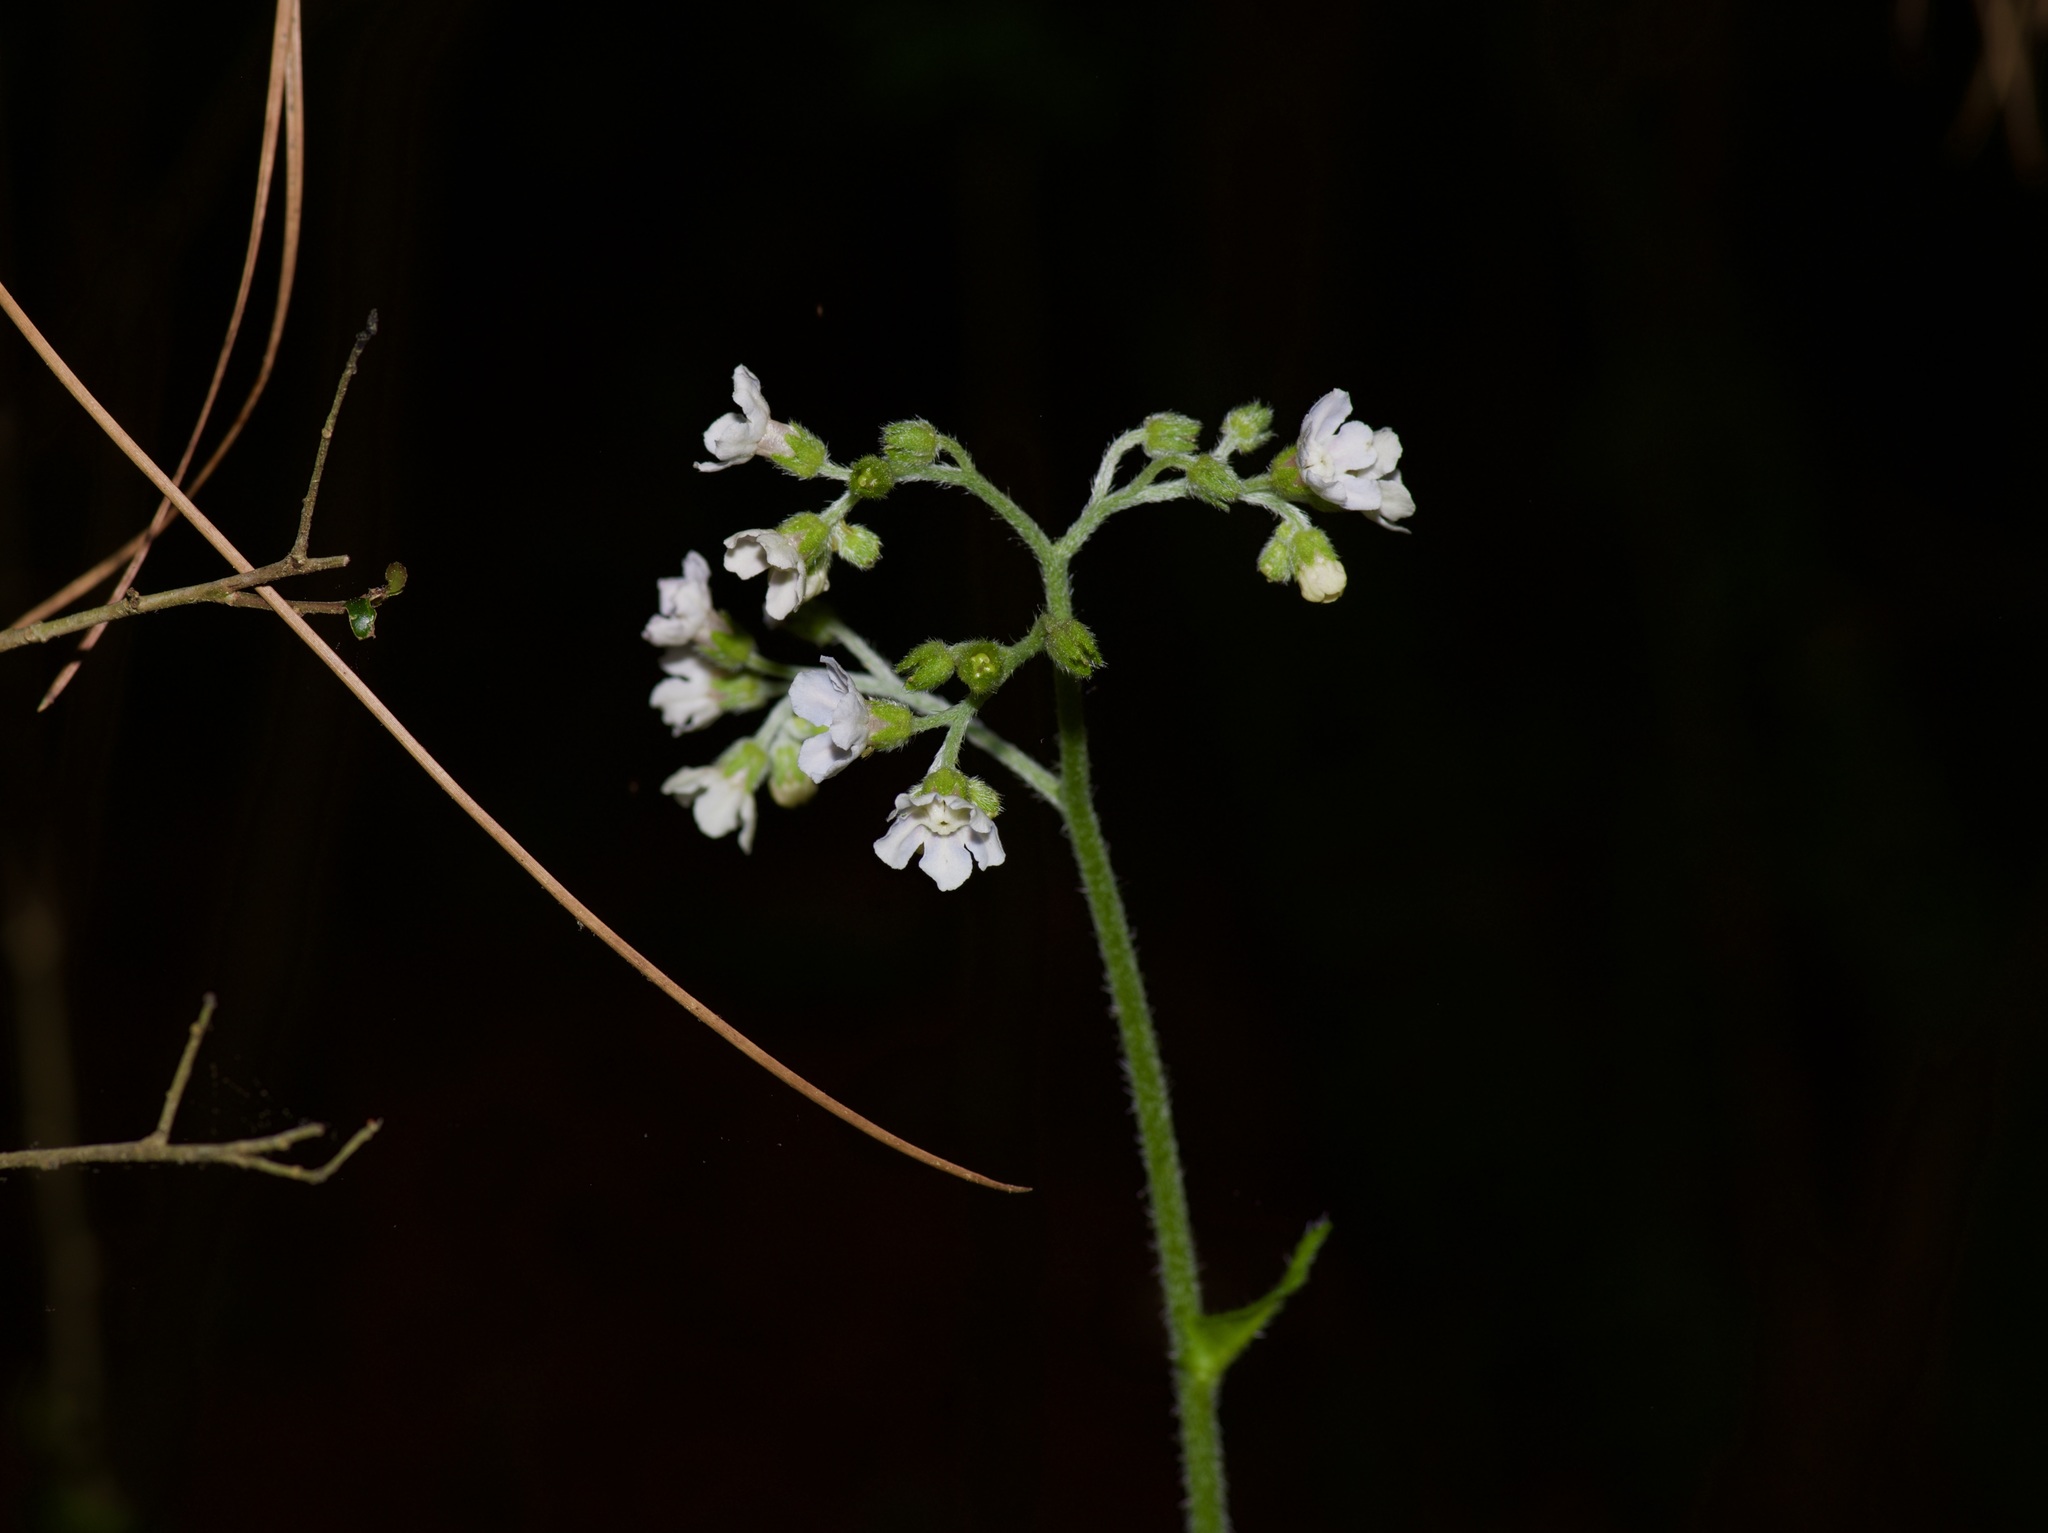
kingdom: Plantae
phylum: Tracheophyta
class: Magnoliopsida
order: Boraginales
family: Boraginaceae
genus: Andersonglossum
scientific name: Andersonglossum virginianum
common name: Wild comfrey
